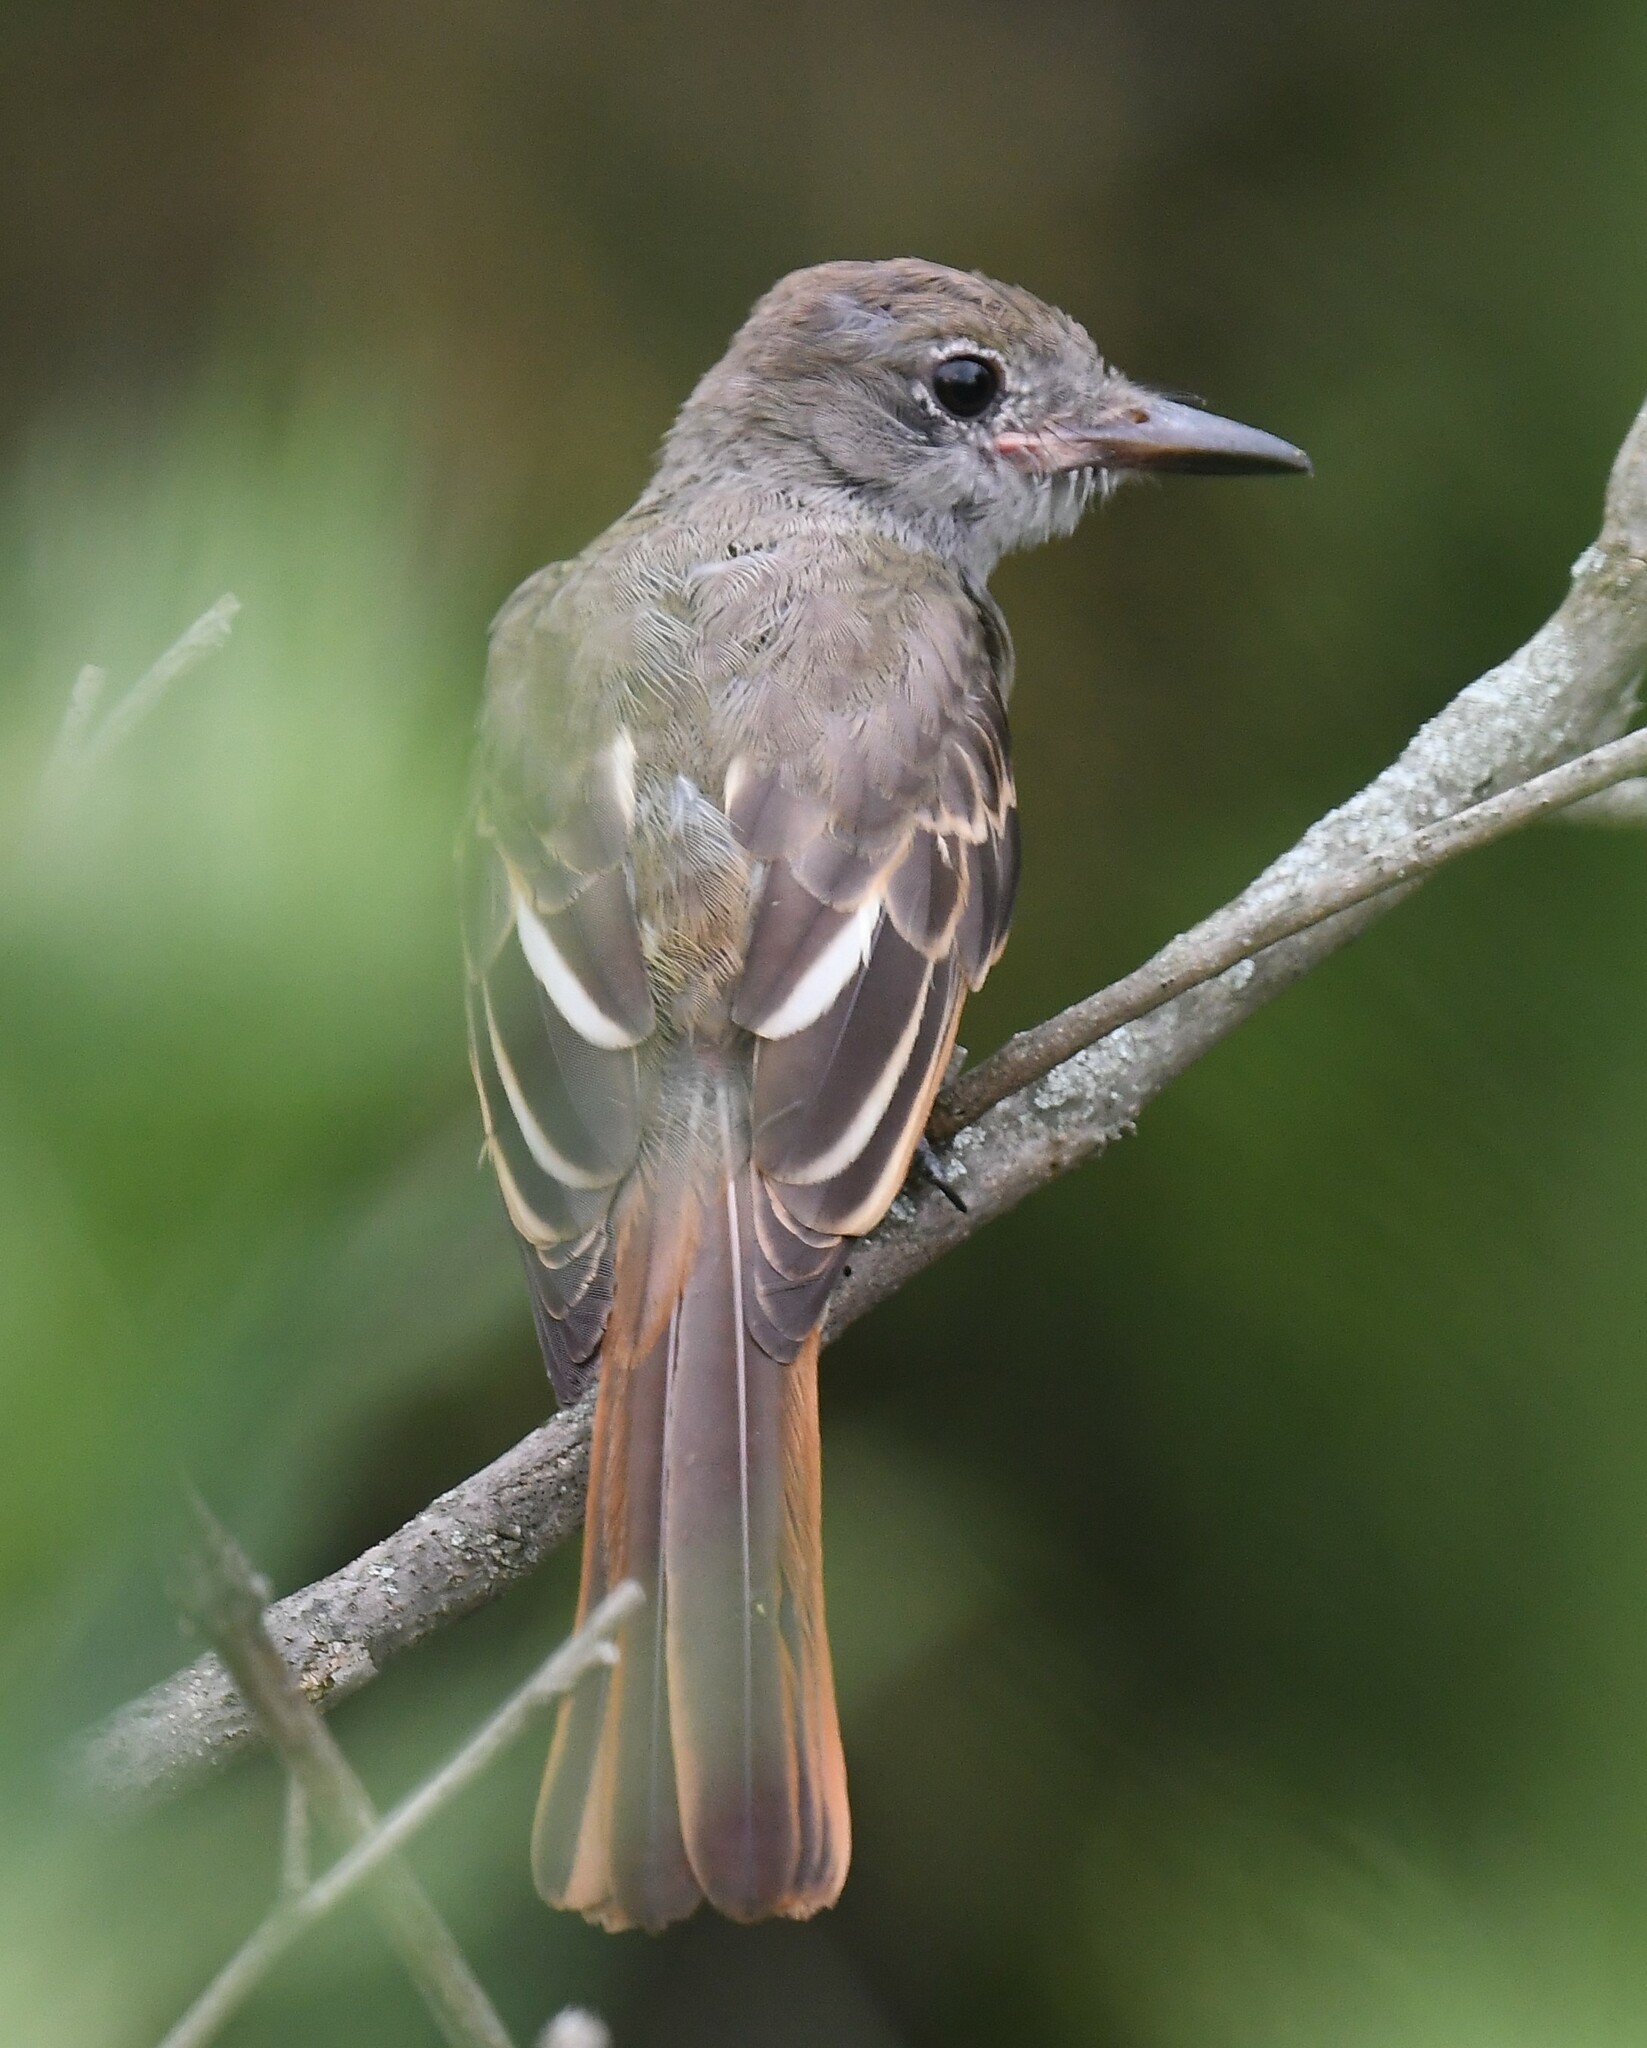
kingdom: Animalia
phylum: Chordata
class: Aves
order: Passeriformes
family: Tyrannidae
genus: Myiarchus
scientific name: Myiarchus crinitus
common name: Great crested flycatcher
